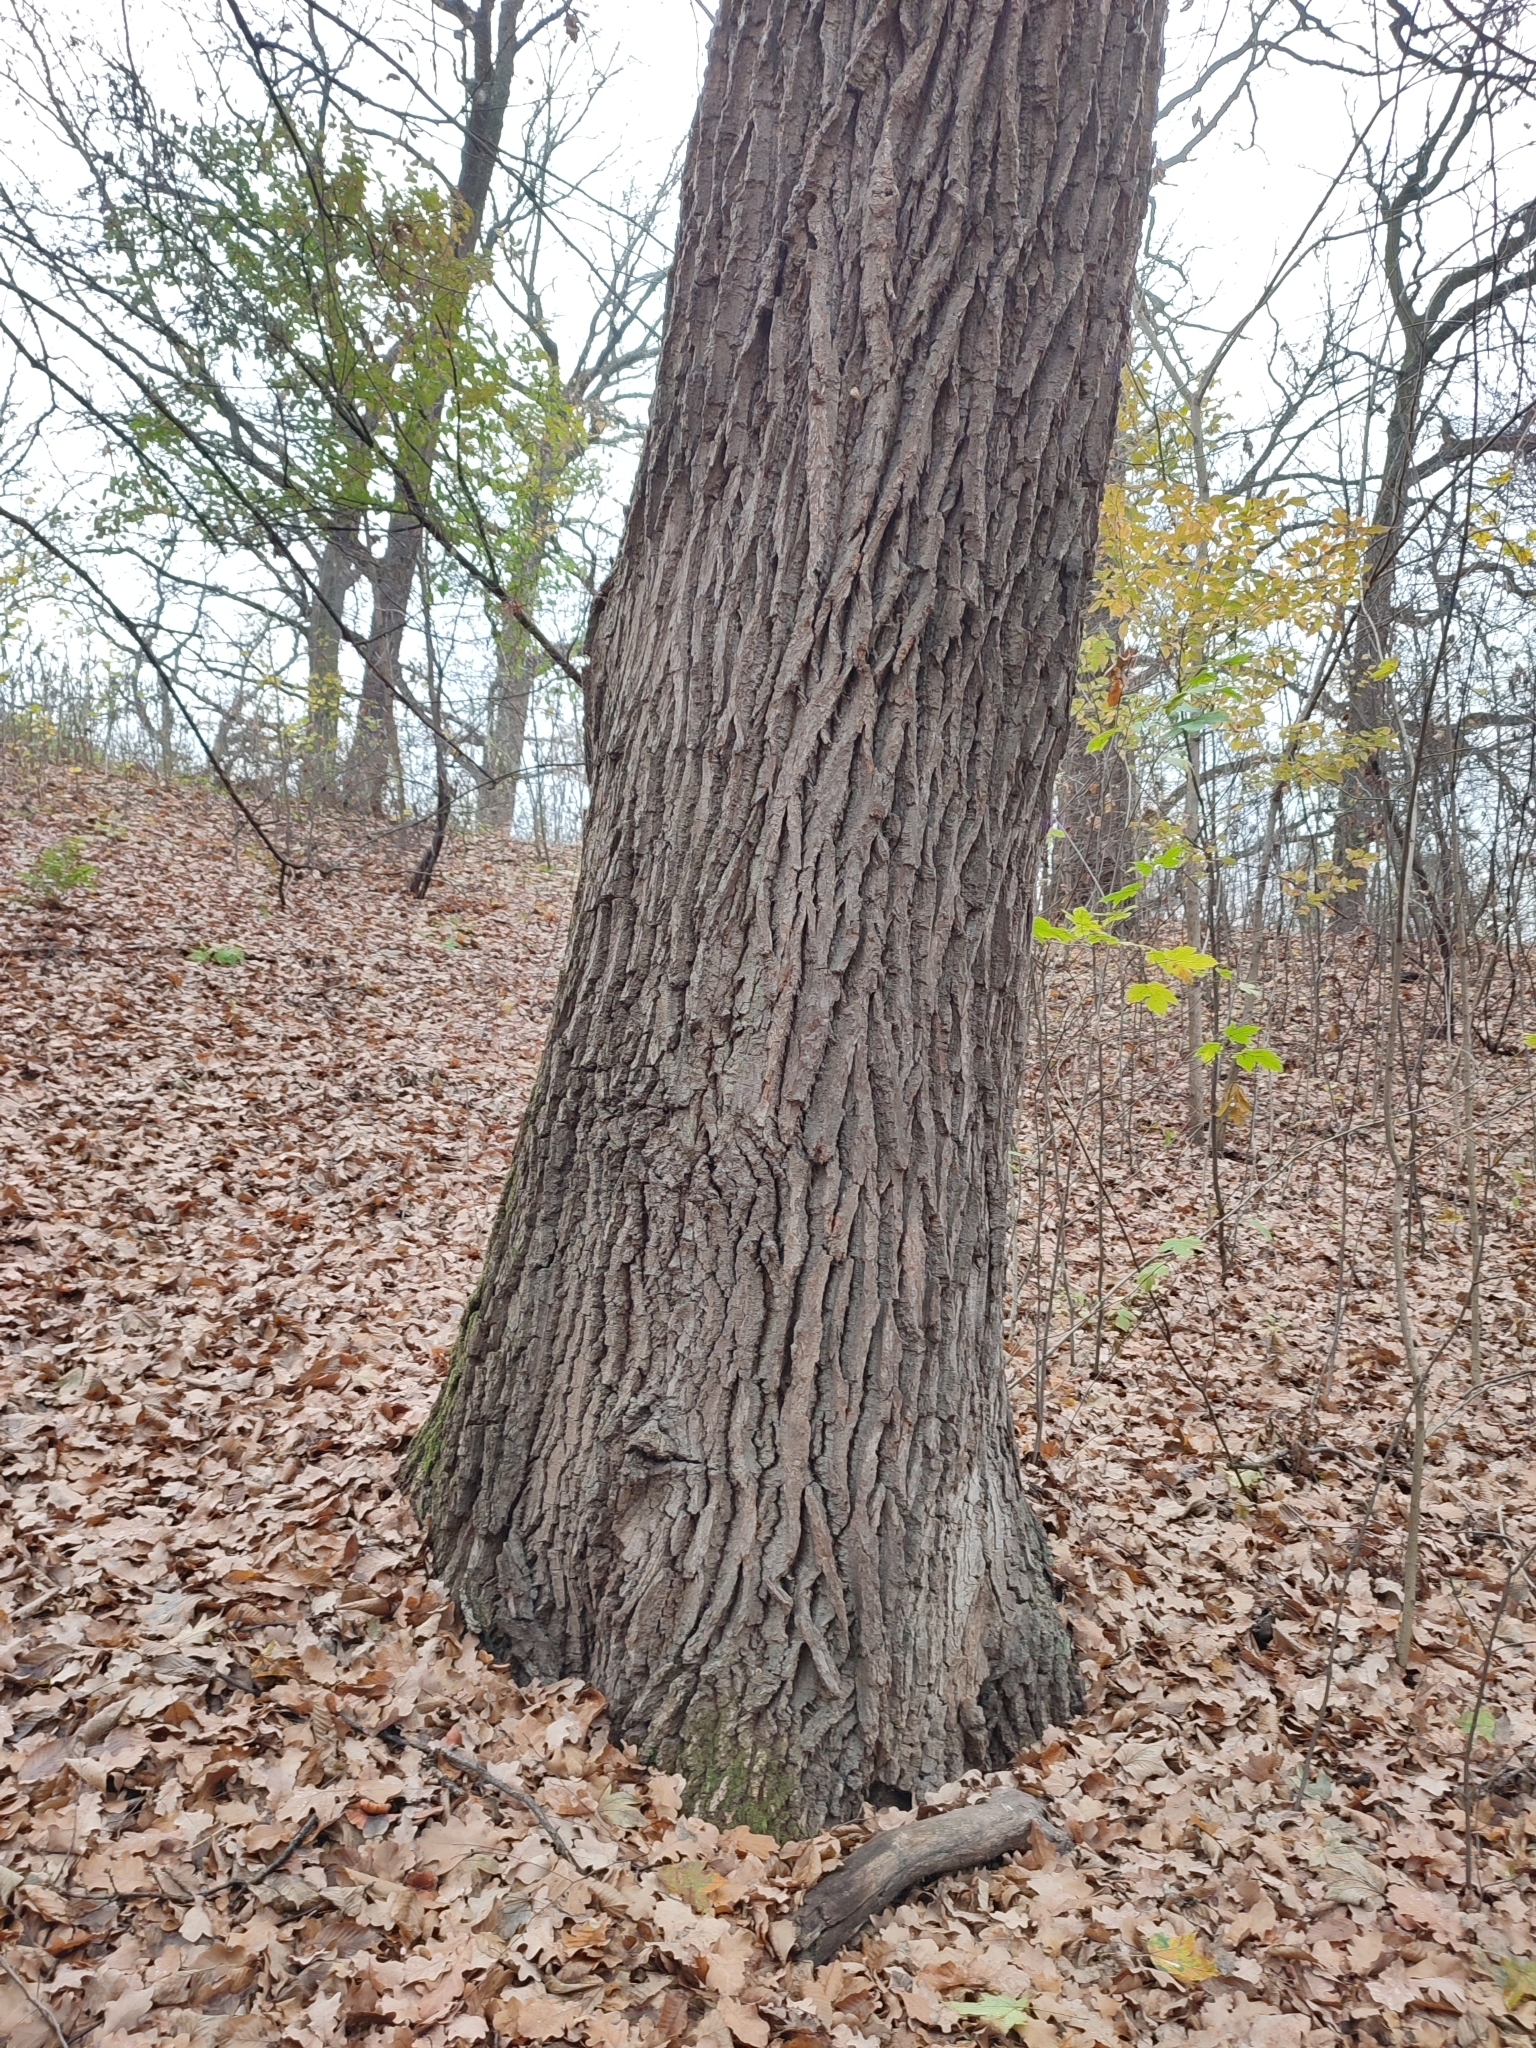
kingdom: Plantae
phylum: Tracheophyta
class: Magnoliopsida
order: Fagales
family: Fagaceae
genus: Quercus
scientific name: Quercus robur
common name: Pedunculate oak
